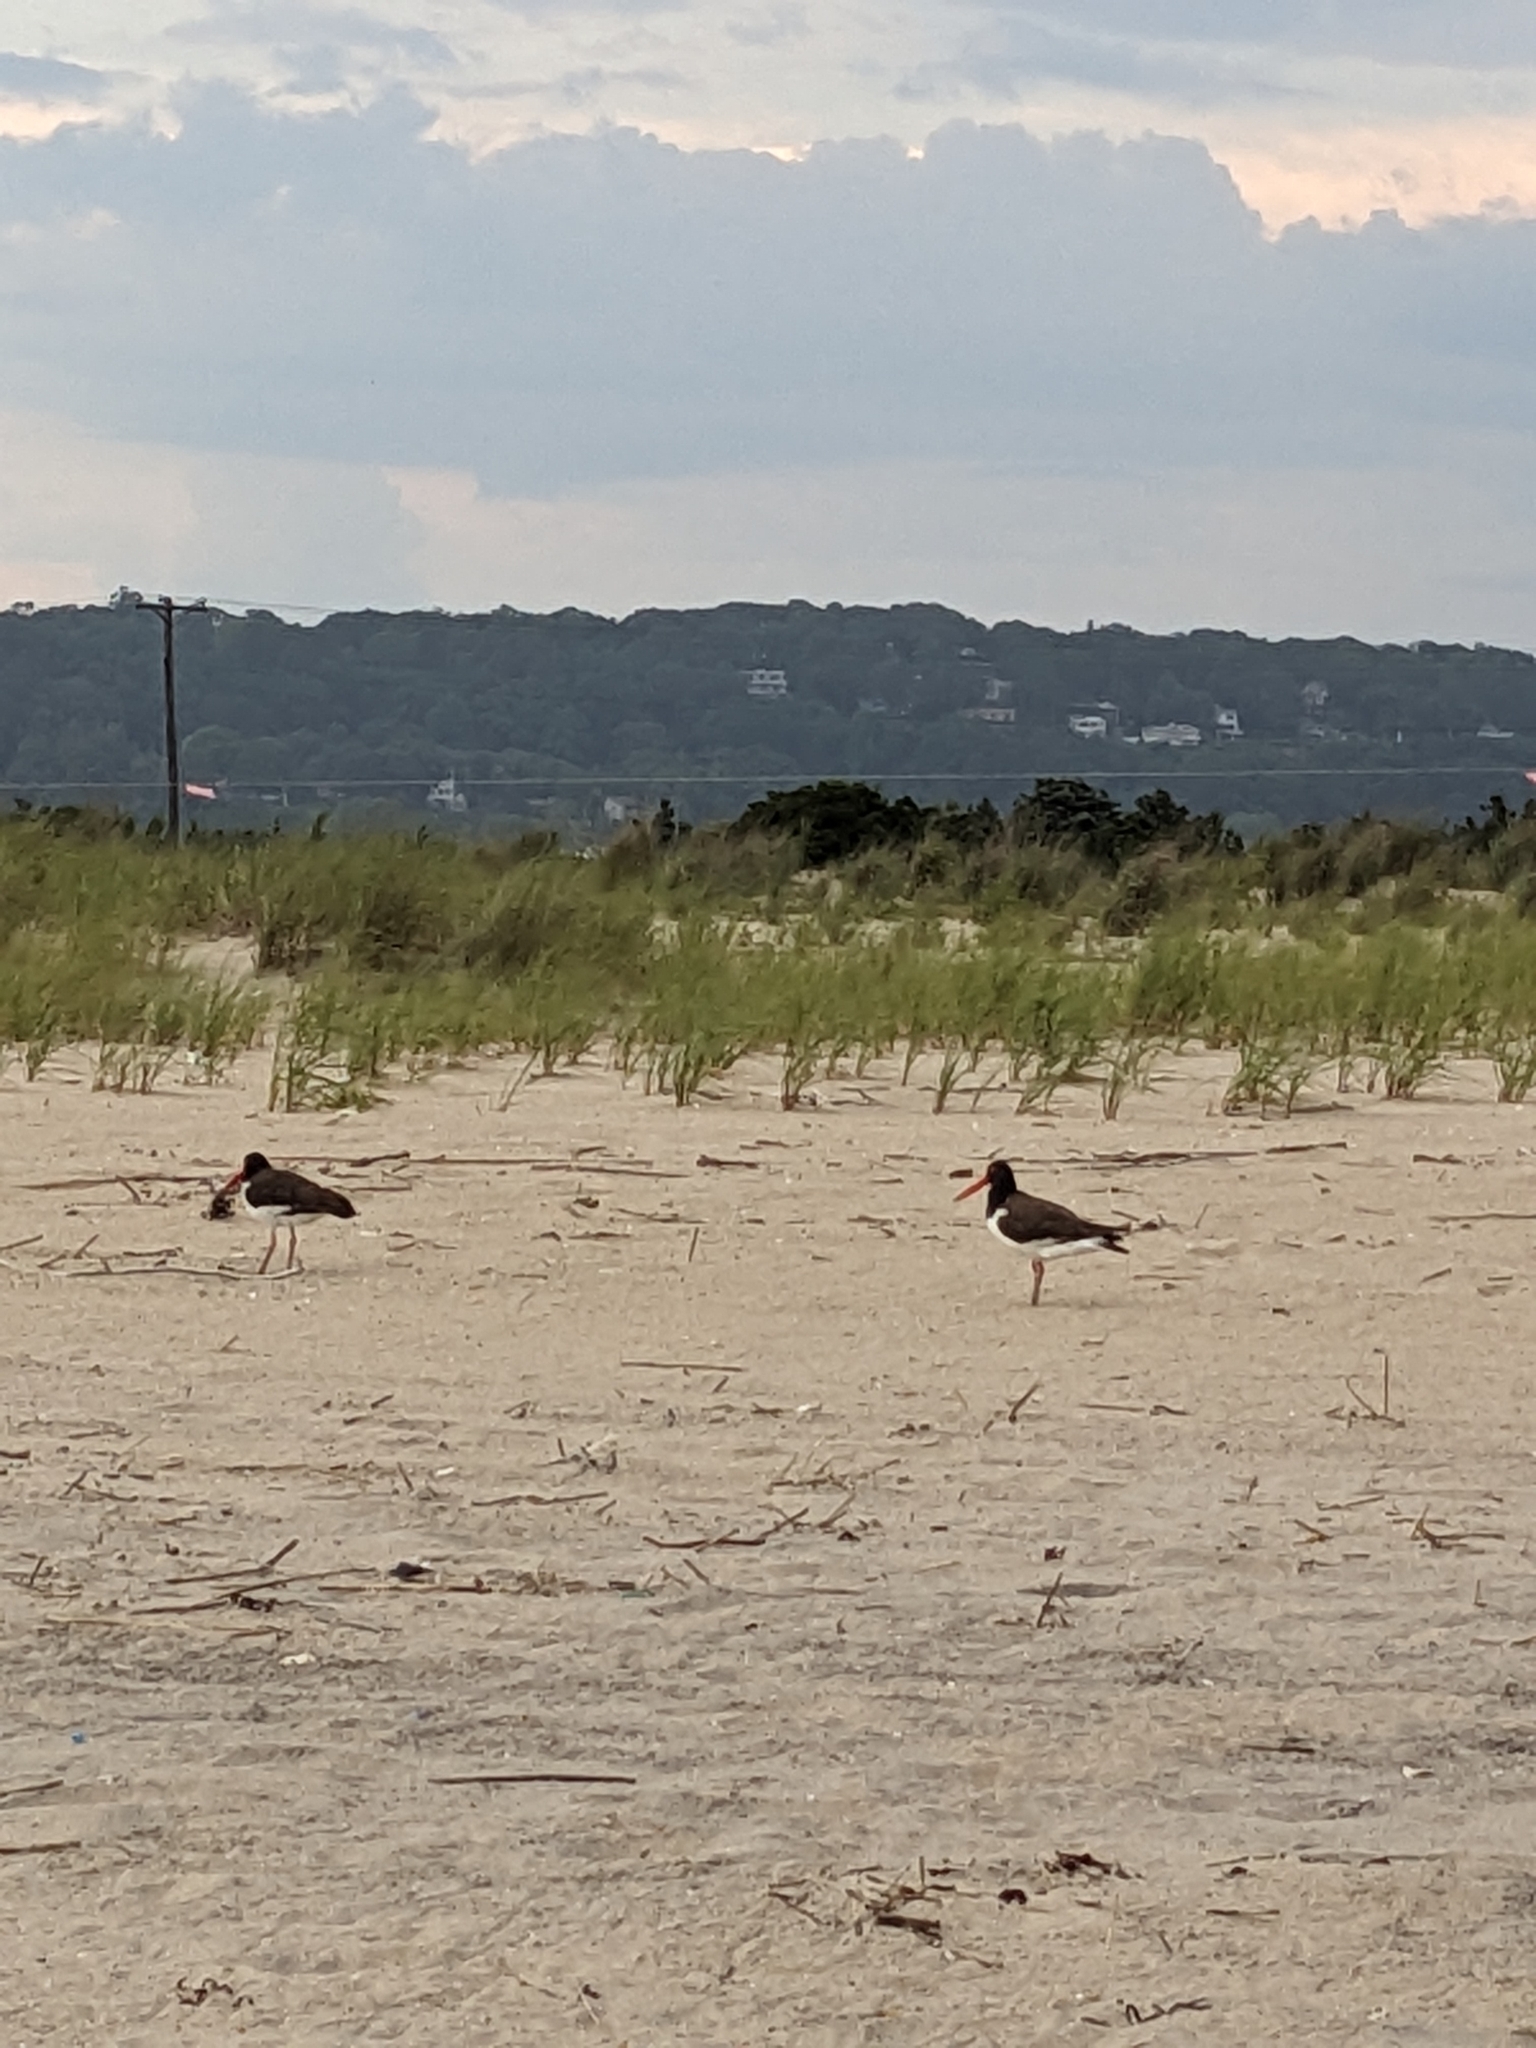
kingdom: Animalia
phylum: Chordata
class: Aves
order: Charadriiformes
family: Haematopodidae
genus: Haematopus
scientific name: Haematopus palliatus
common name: American oystercatcher
